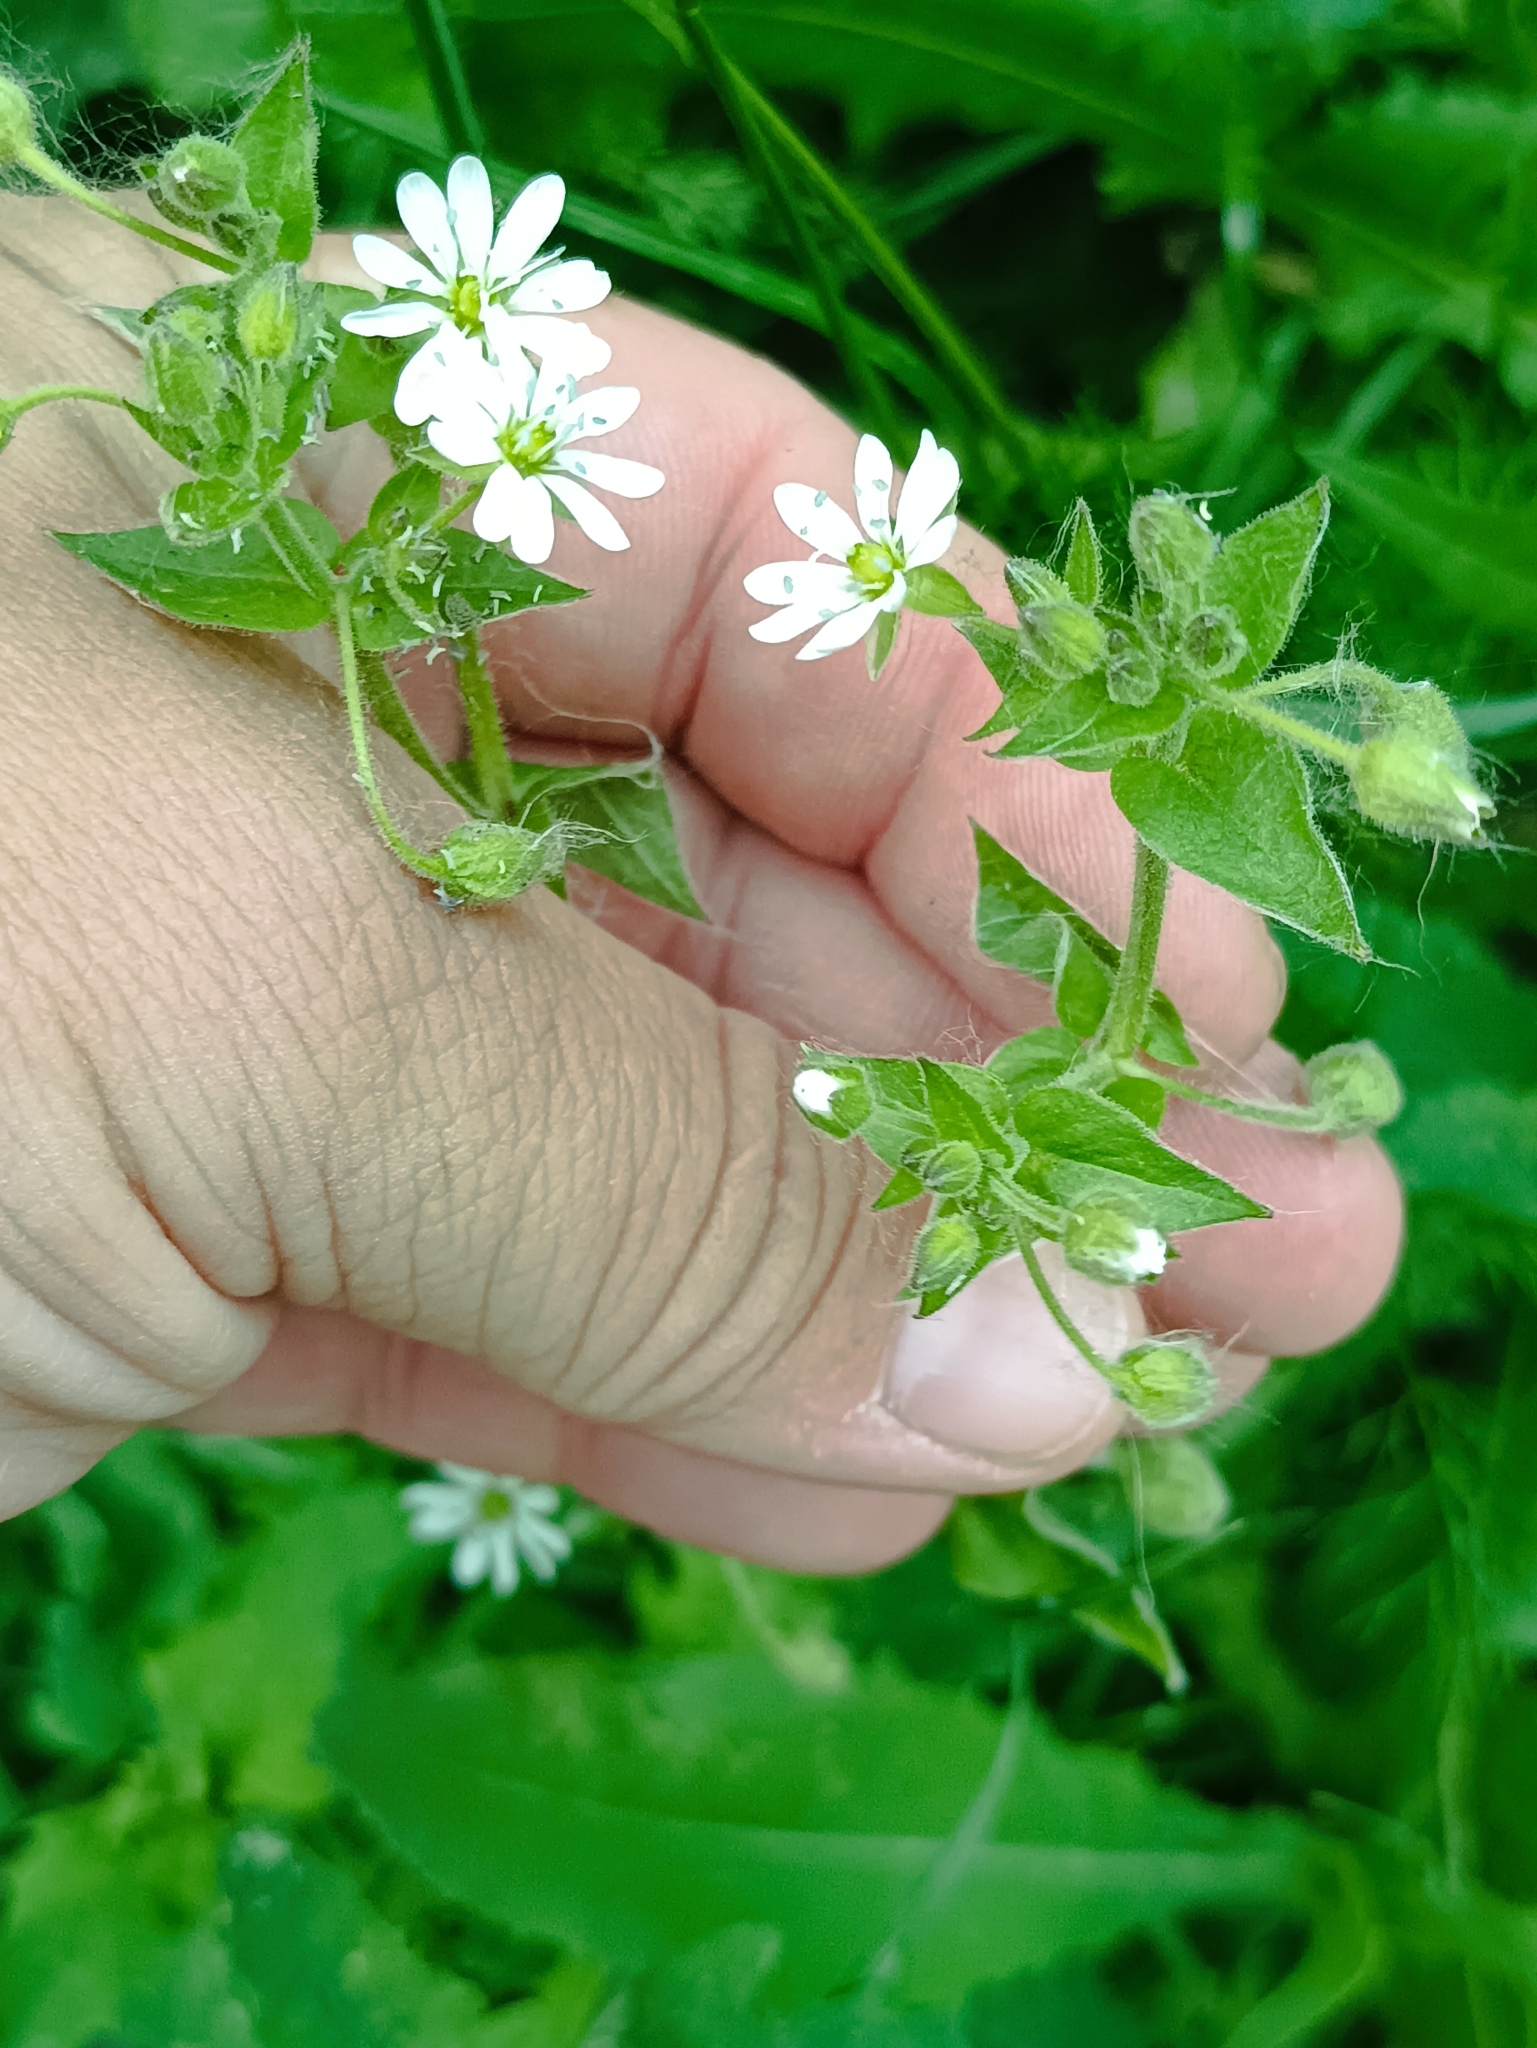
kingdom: Plantae
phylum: Tracheophyta
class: Magnoliopsida
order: Caryophyllales
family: Caryophyllaceae
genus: Stellaria
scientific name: Stellaria aquatica
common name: Water chickweed
